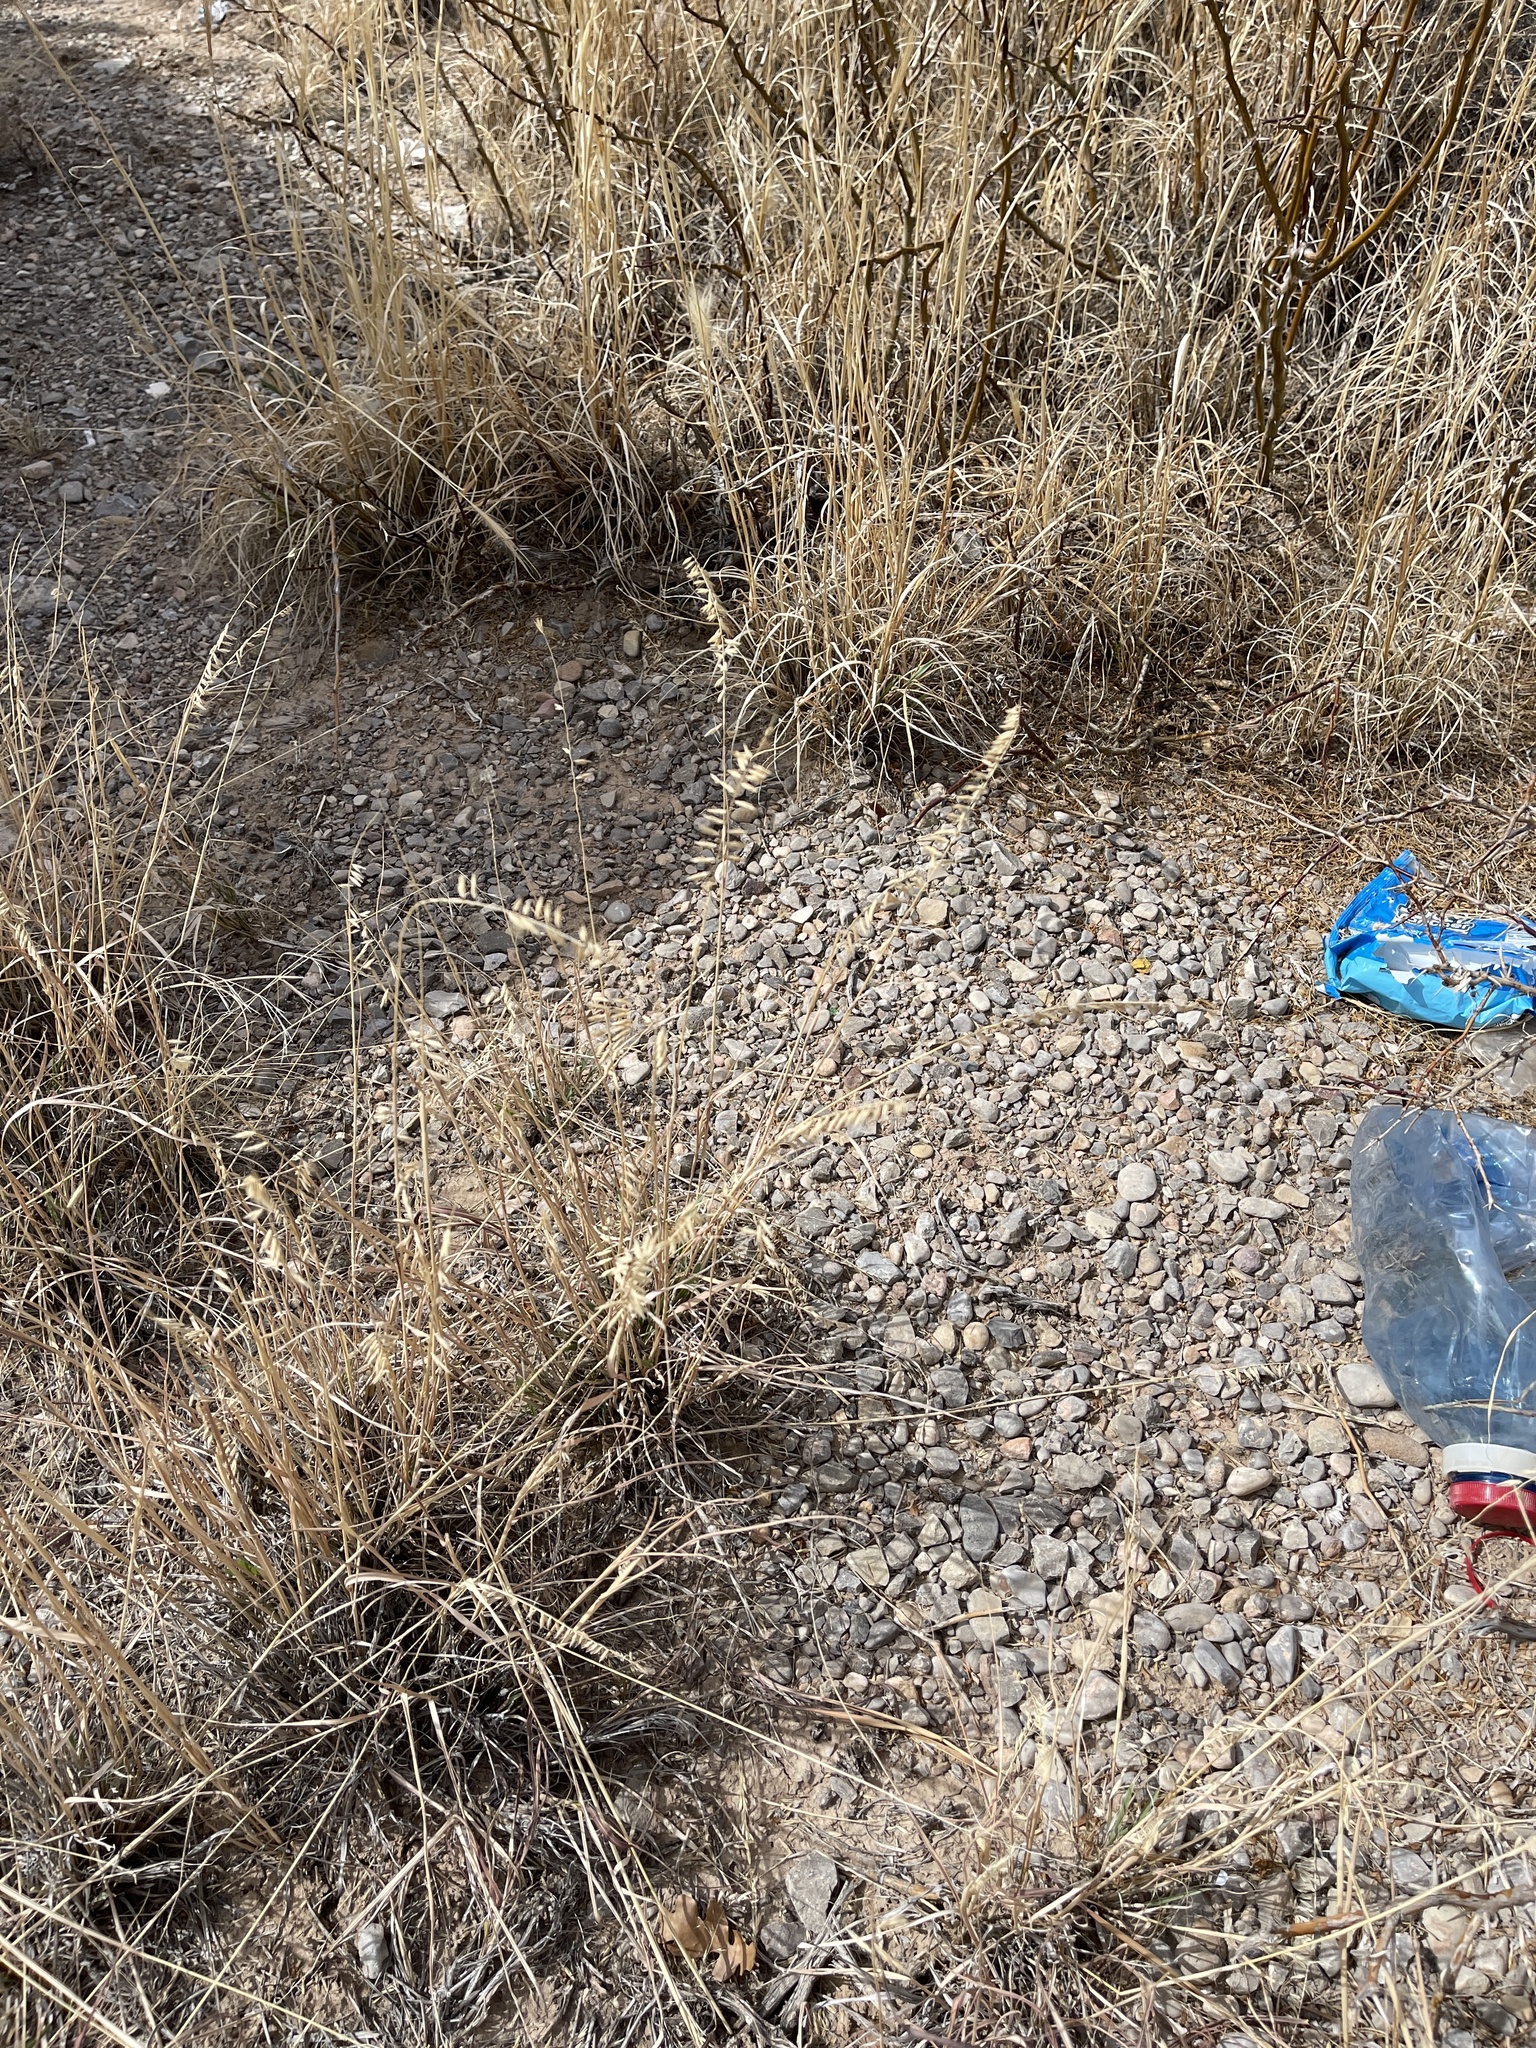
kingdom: Plantae
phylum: Tracheophyta
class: Liliopsida
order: Poales
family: Poaceae
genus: Bouteloua
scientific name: Bouteloua curtipendula
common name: Side-oats grama
